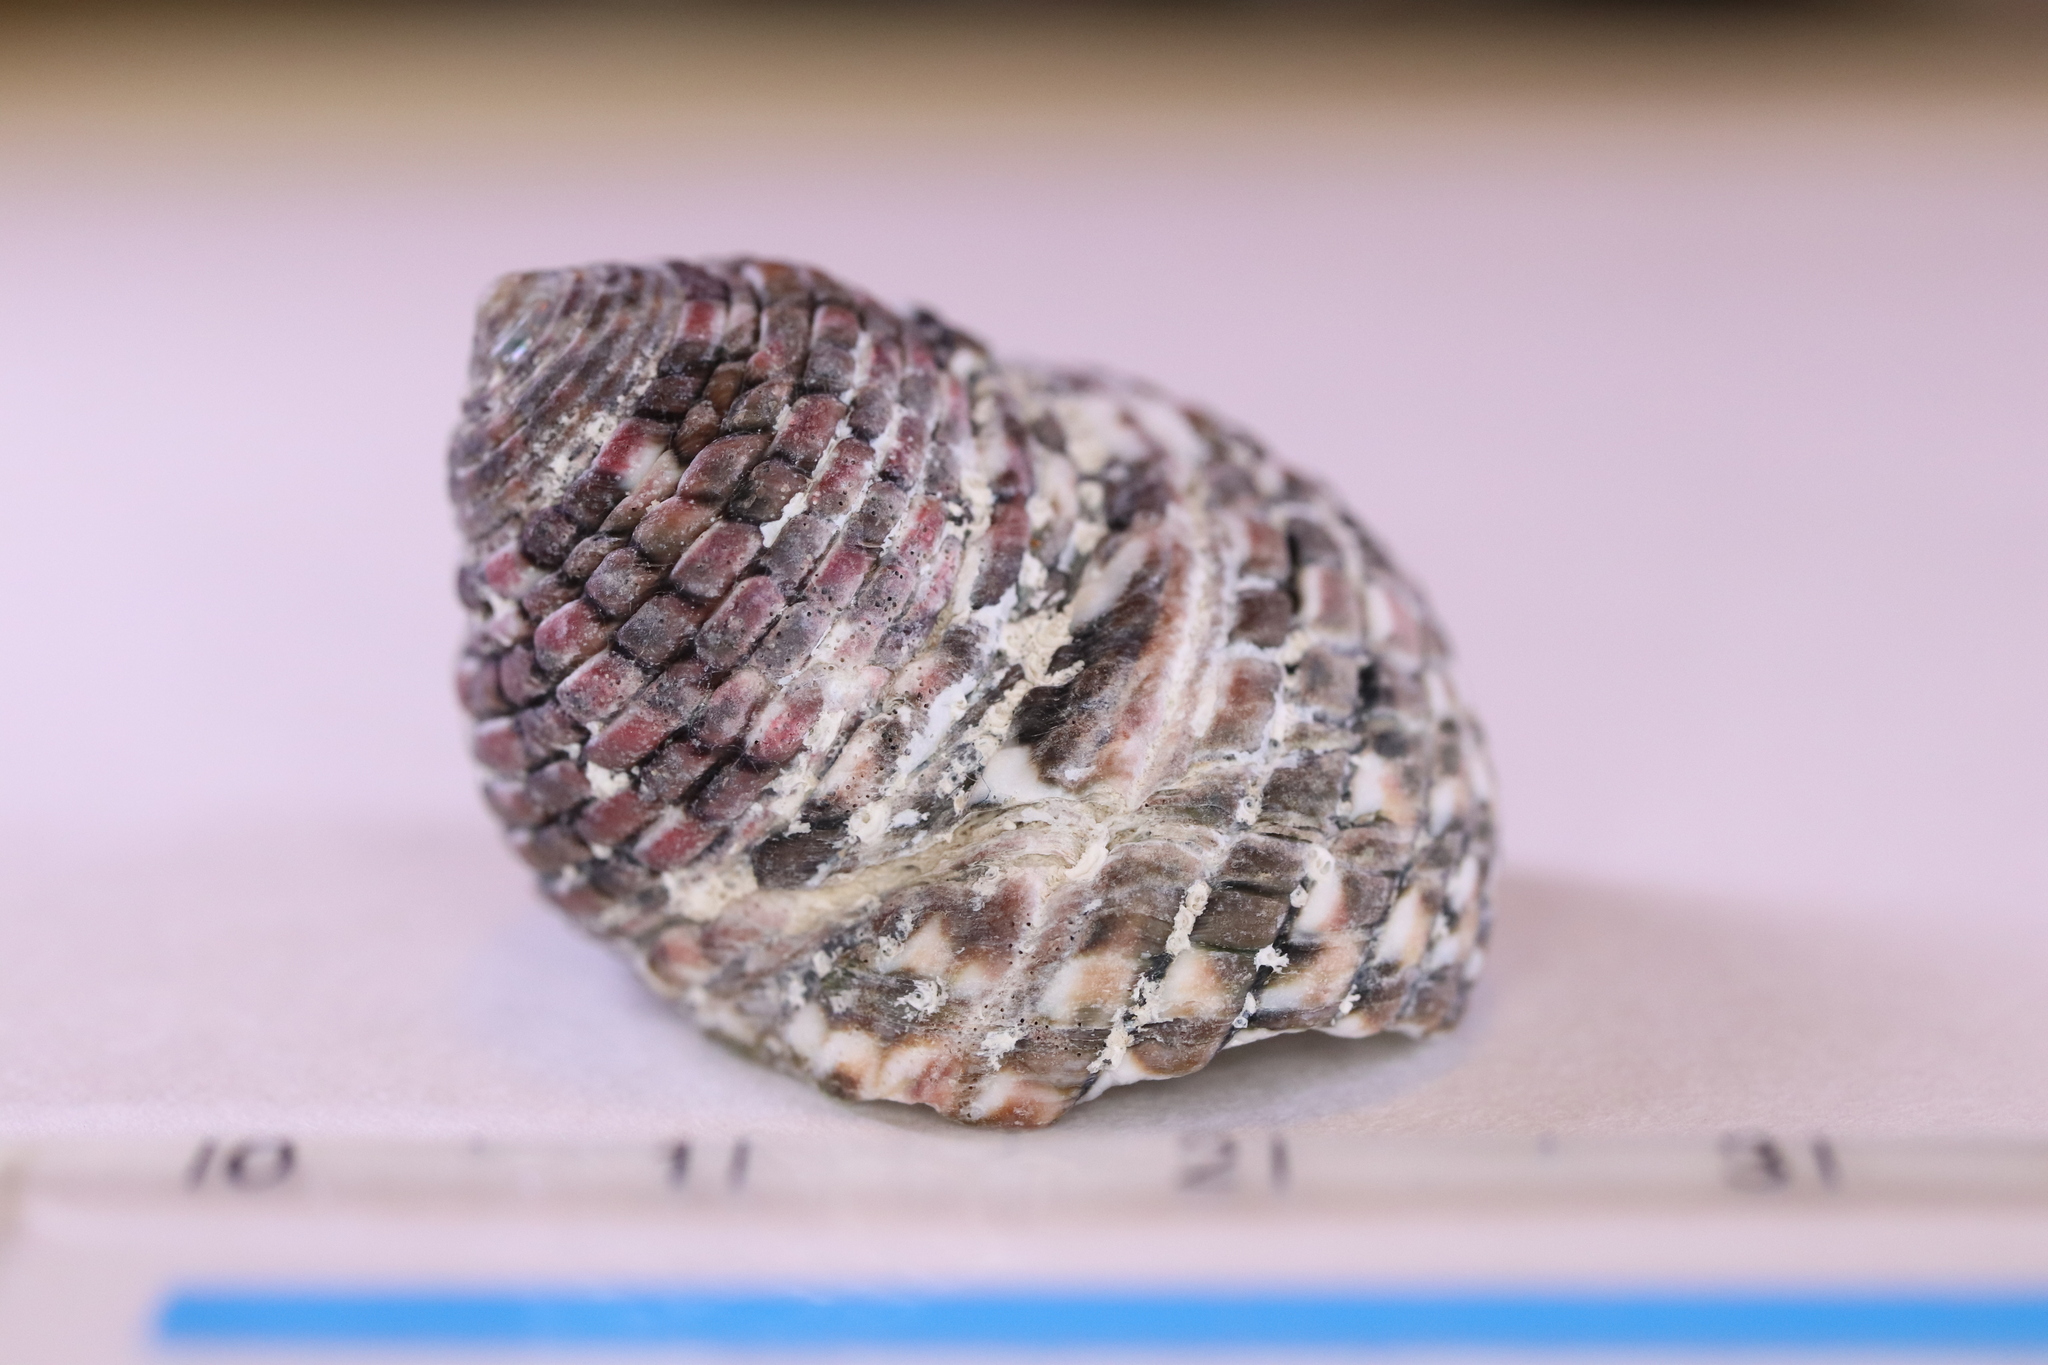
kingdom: Animalia
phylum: Mollusca
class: Gastropoda
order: Trochida
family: Trochidae
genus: Monodonta
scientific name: Monodonta confusa
